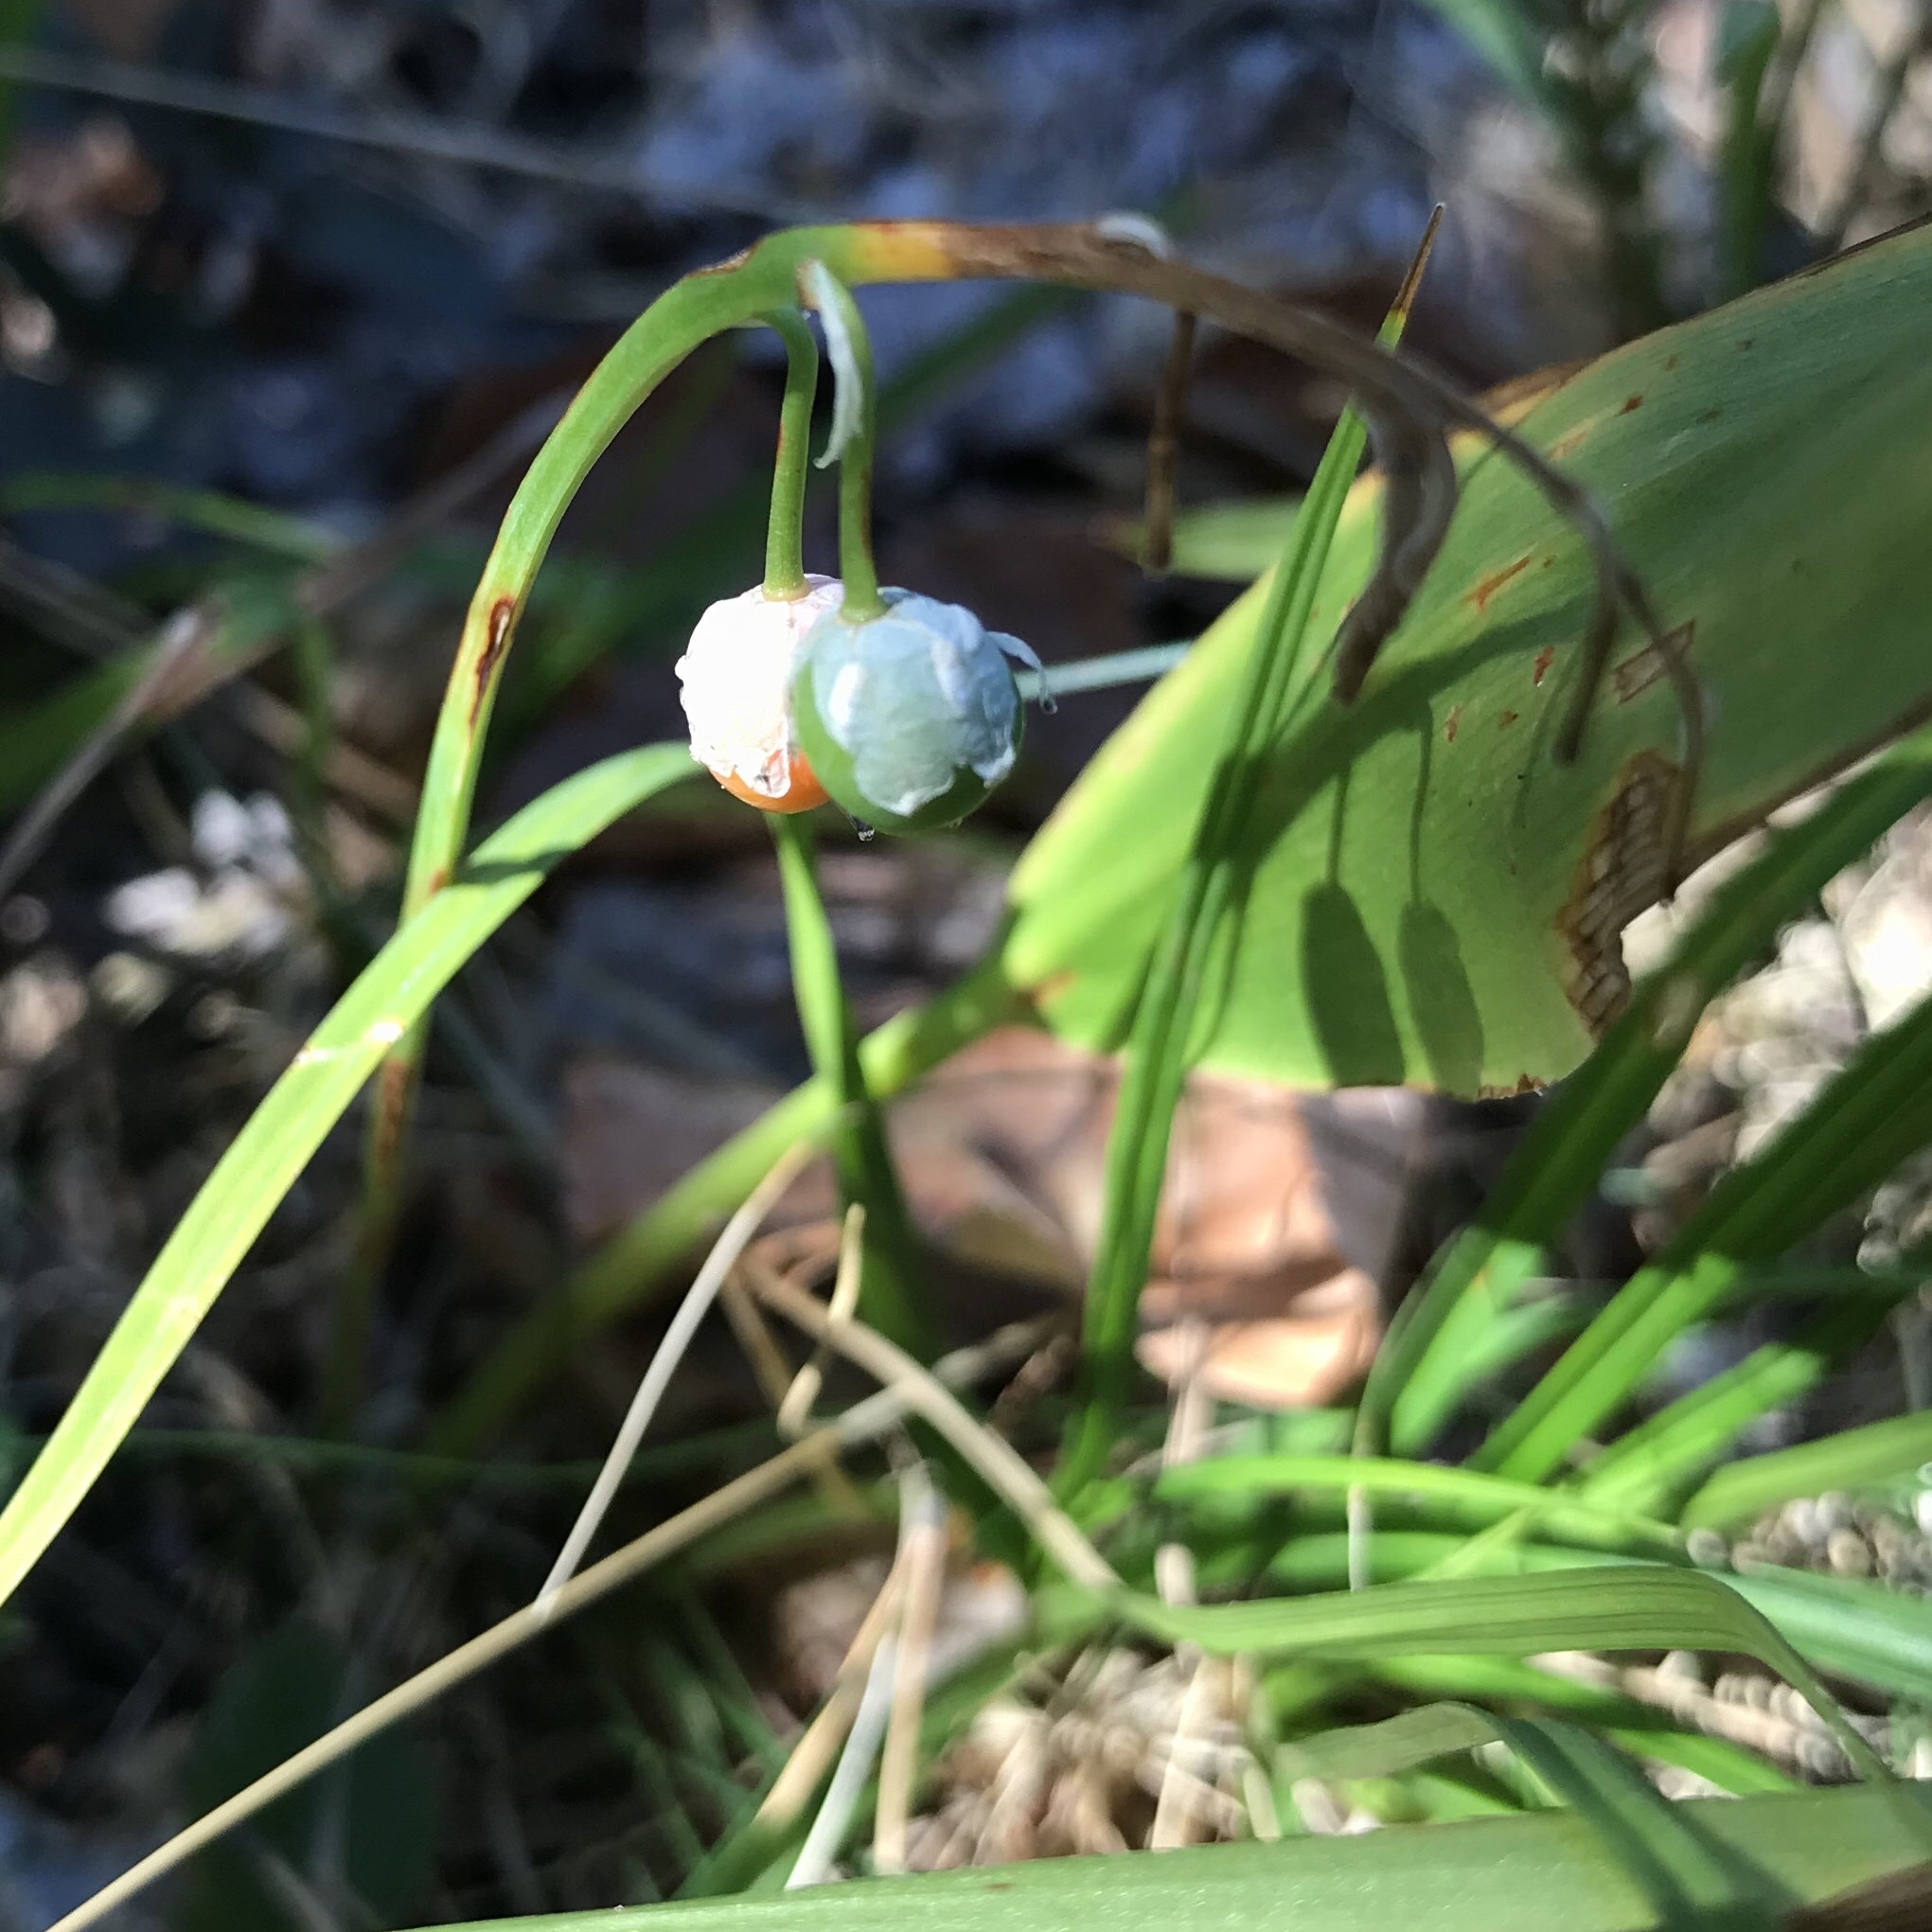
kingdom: Plantae
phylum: Tracheophyta
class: Liliopsida
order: Asparagales
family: Asparagaceae
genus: Convallaria
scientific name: Convallaria majalis
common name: Lily-of-the-valley
